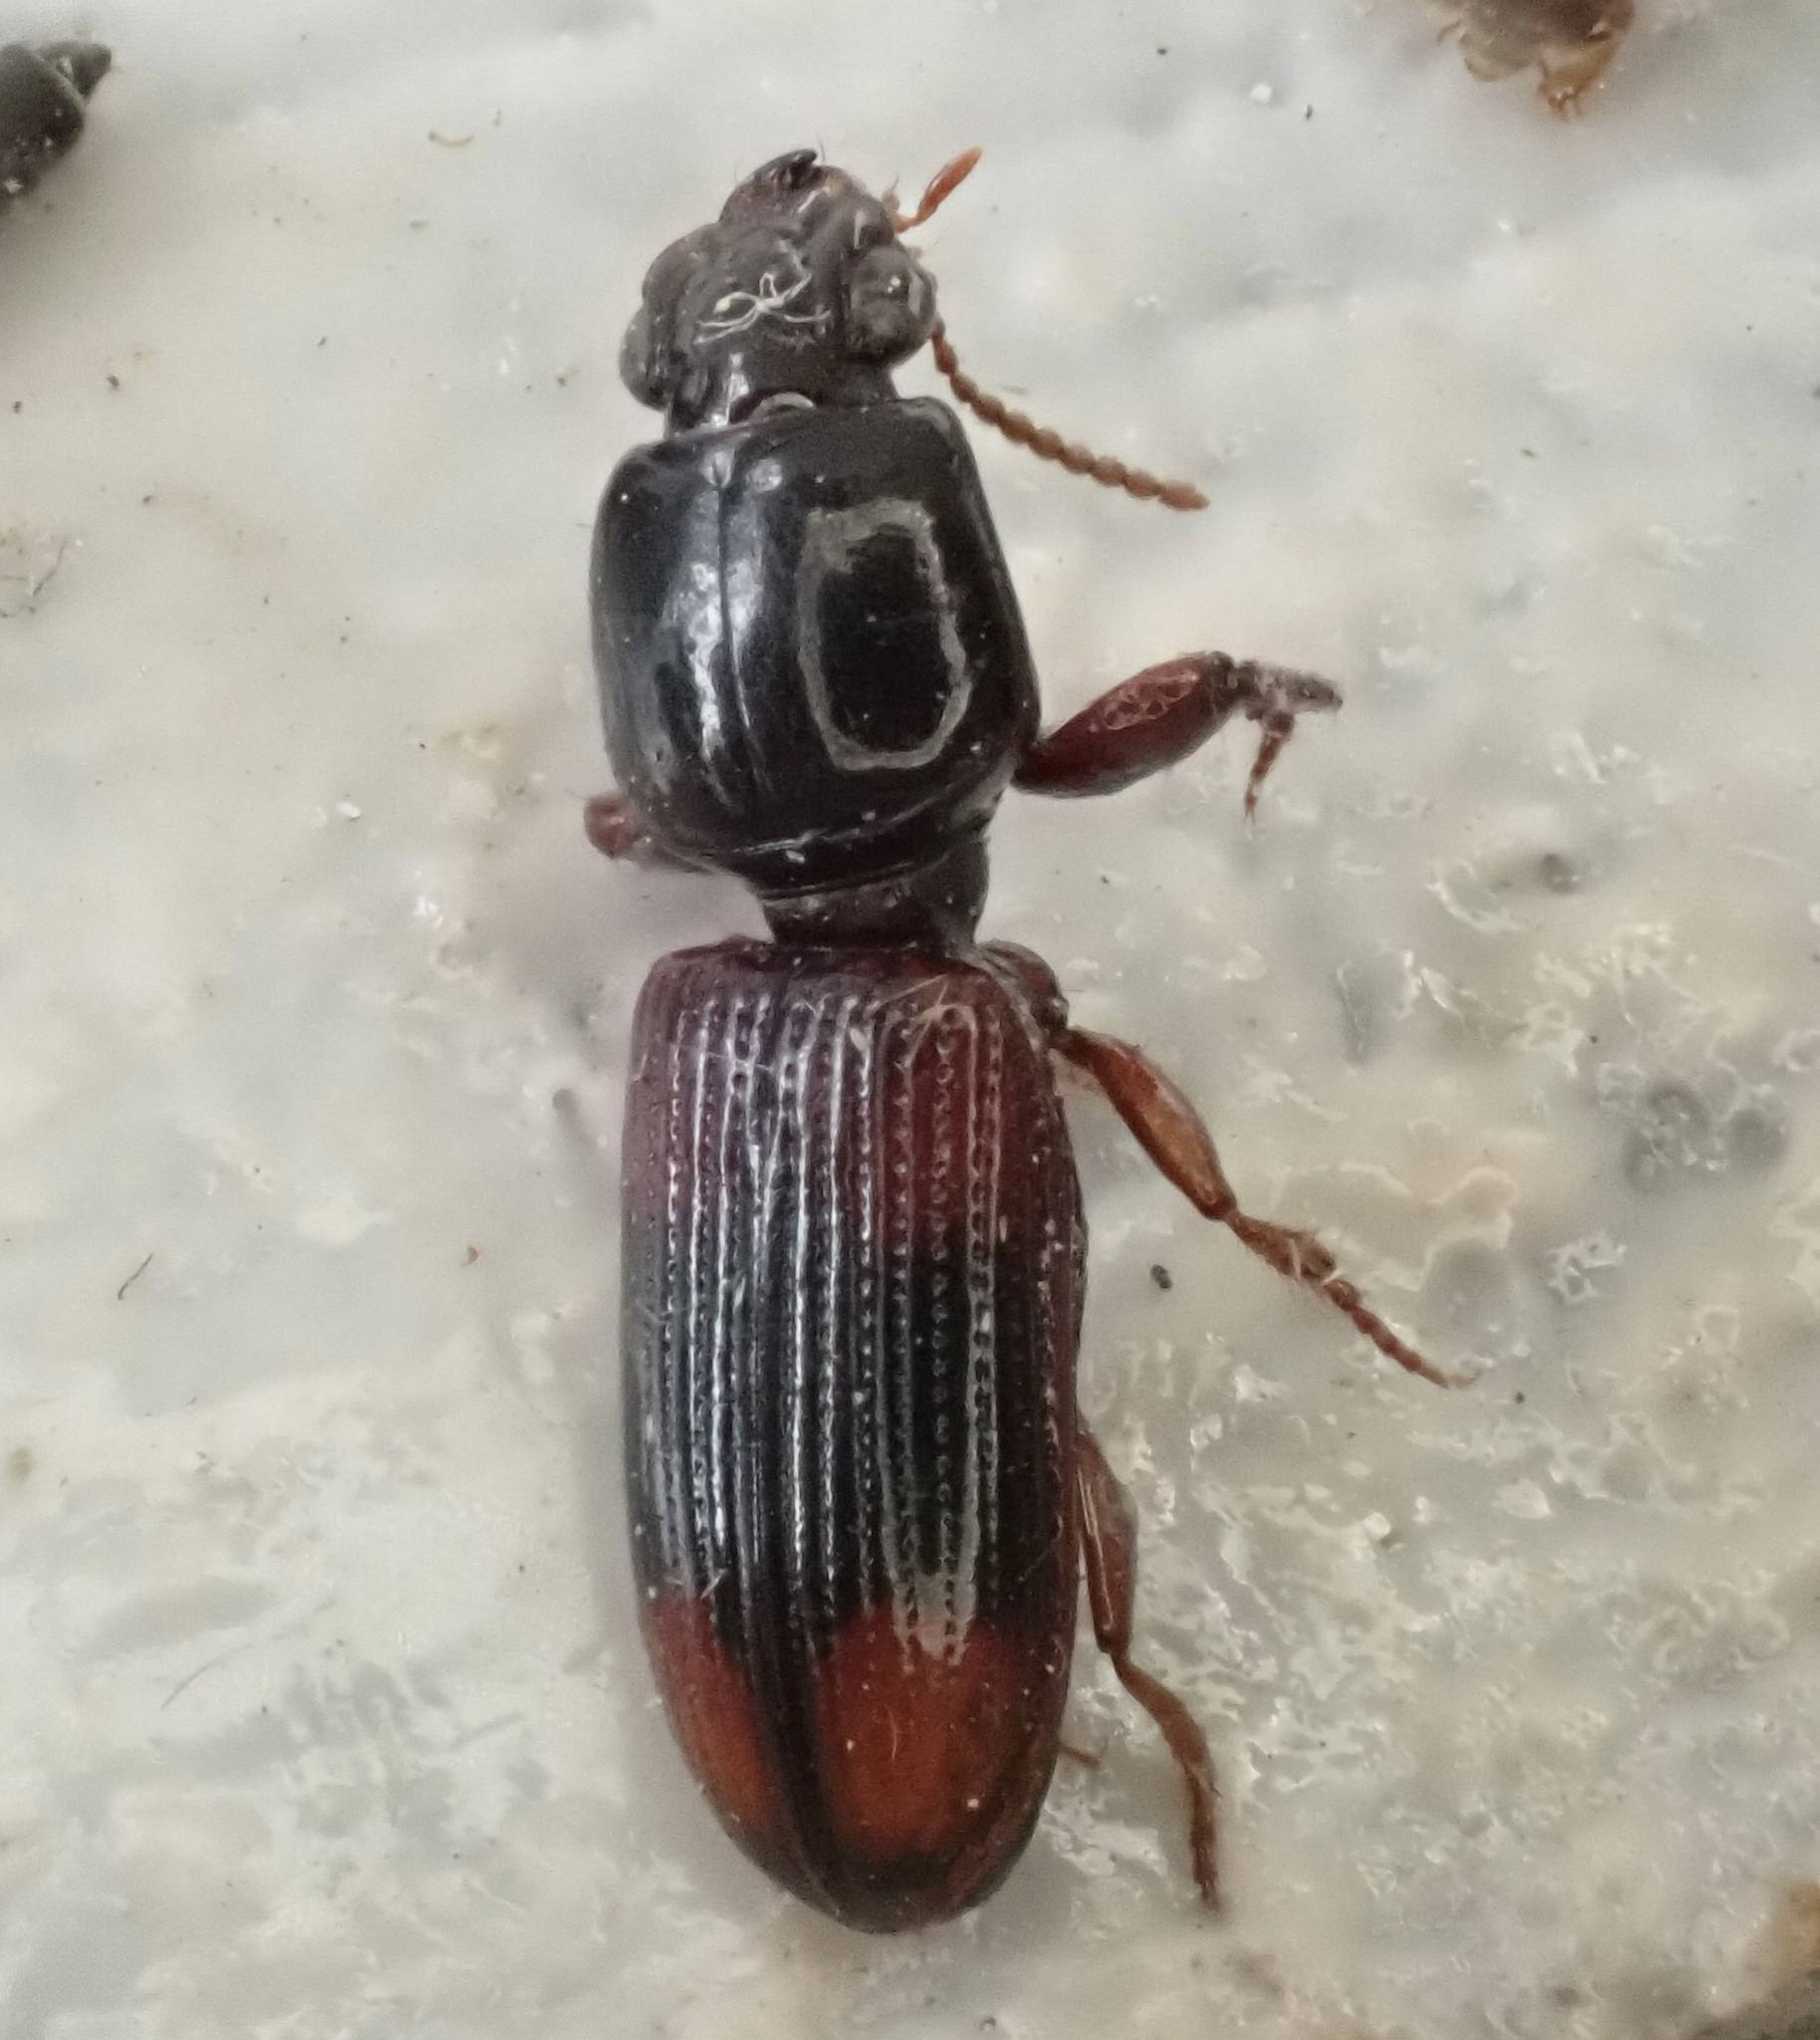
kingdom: Animalia
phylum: Arthropoda
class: Insecta
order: Coleoptera
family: Carabidae
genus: Clivina
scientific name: Clivina bipustulata
